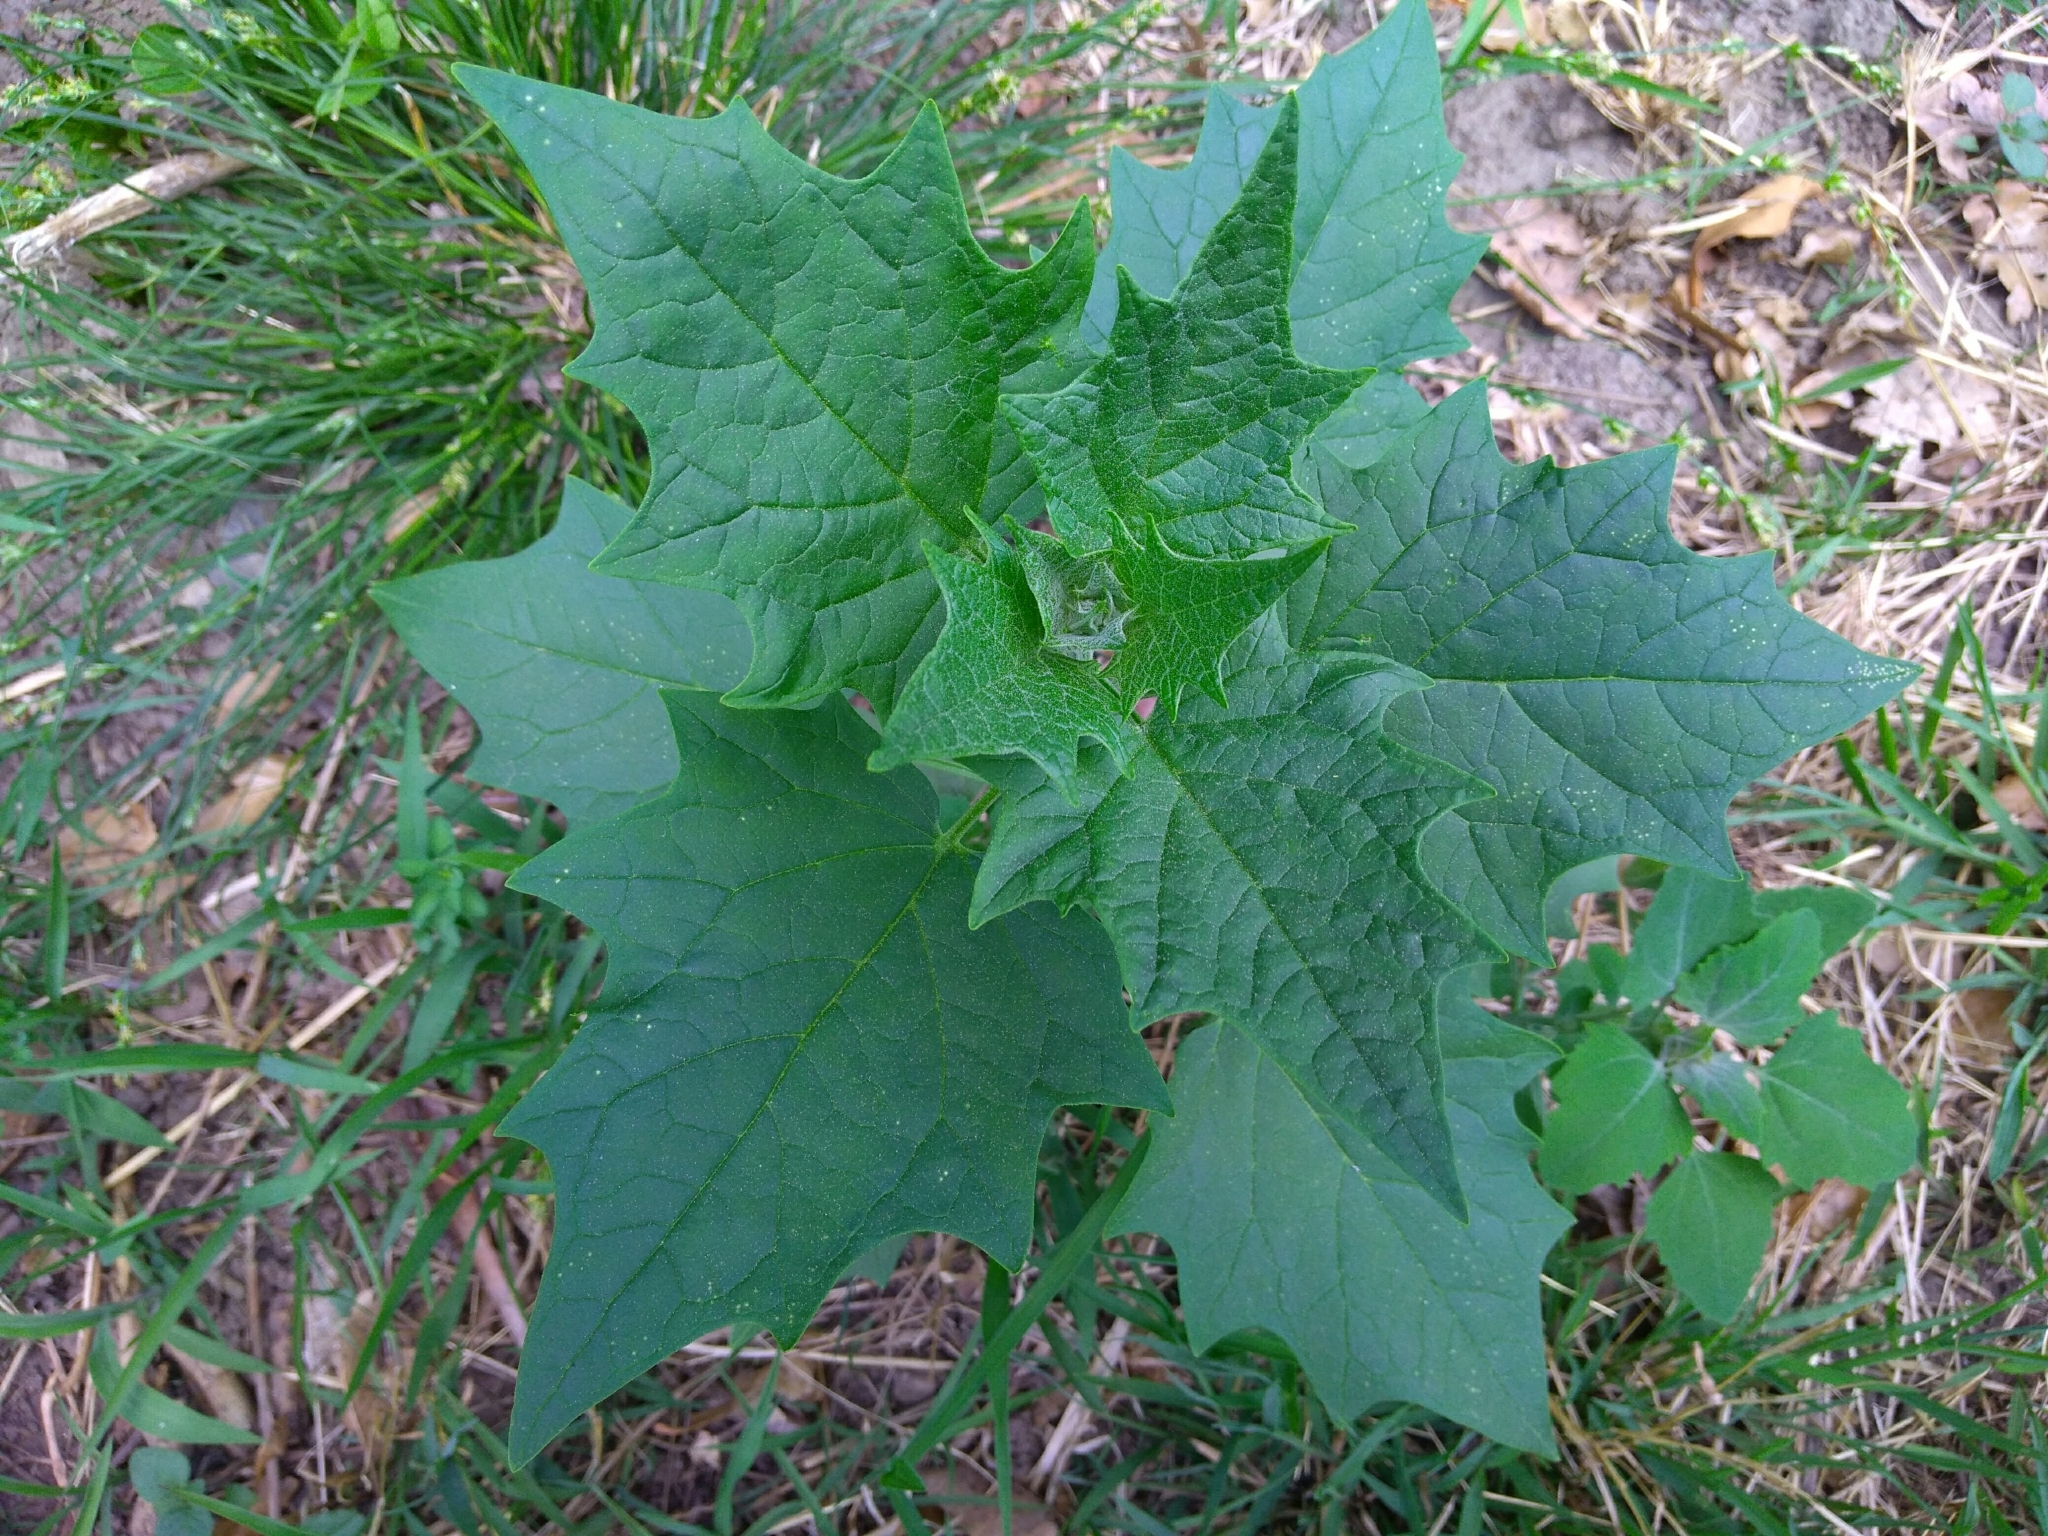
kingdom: Plantae
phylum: Tracheophyta
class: Magnoliopsida
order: Caryophyllales
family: Amaranthaceae
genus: Chenopodiastrum
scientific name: Chenopodiastrum hybridum
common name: Mapleleaf goosefoot
